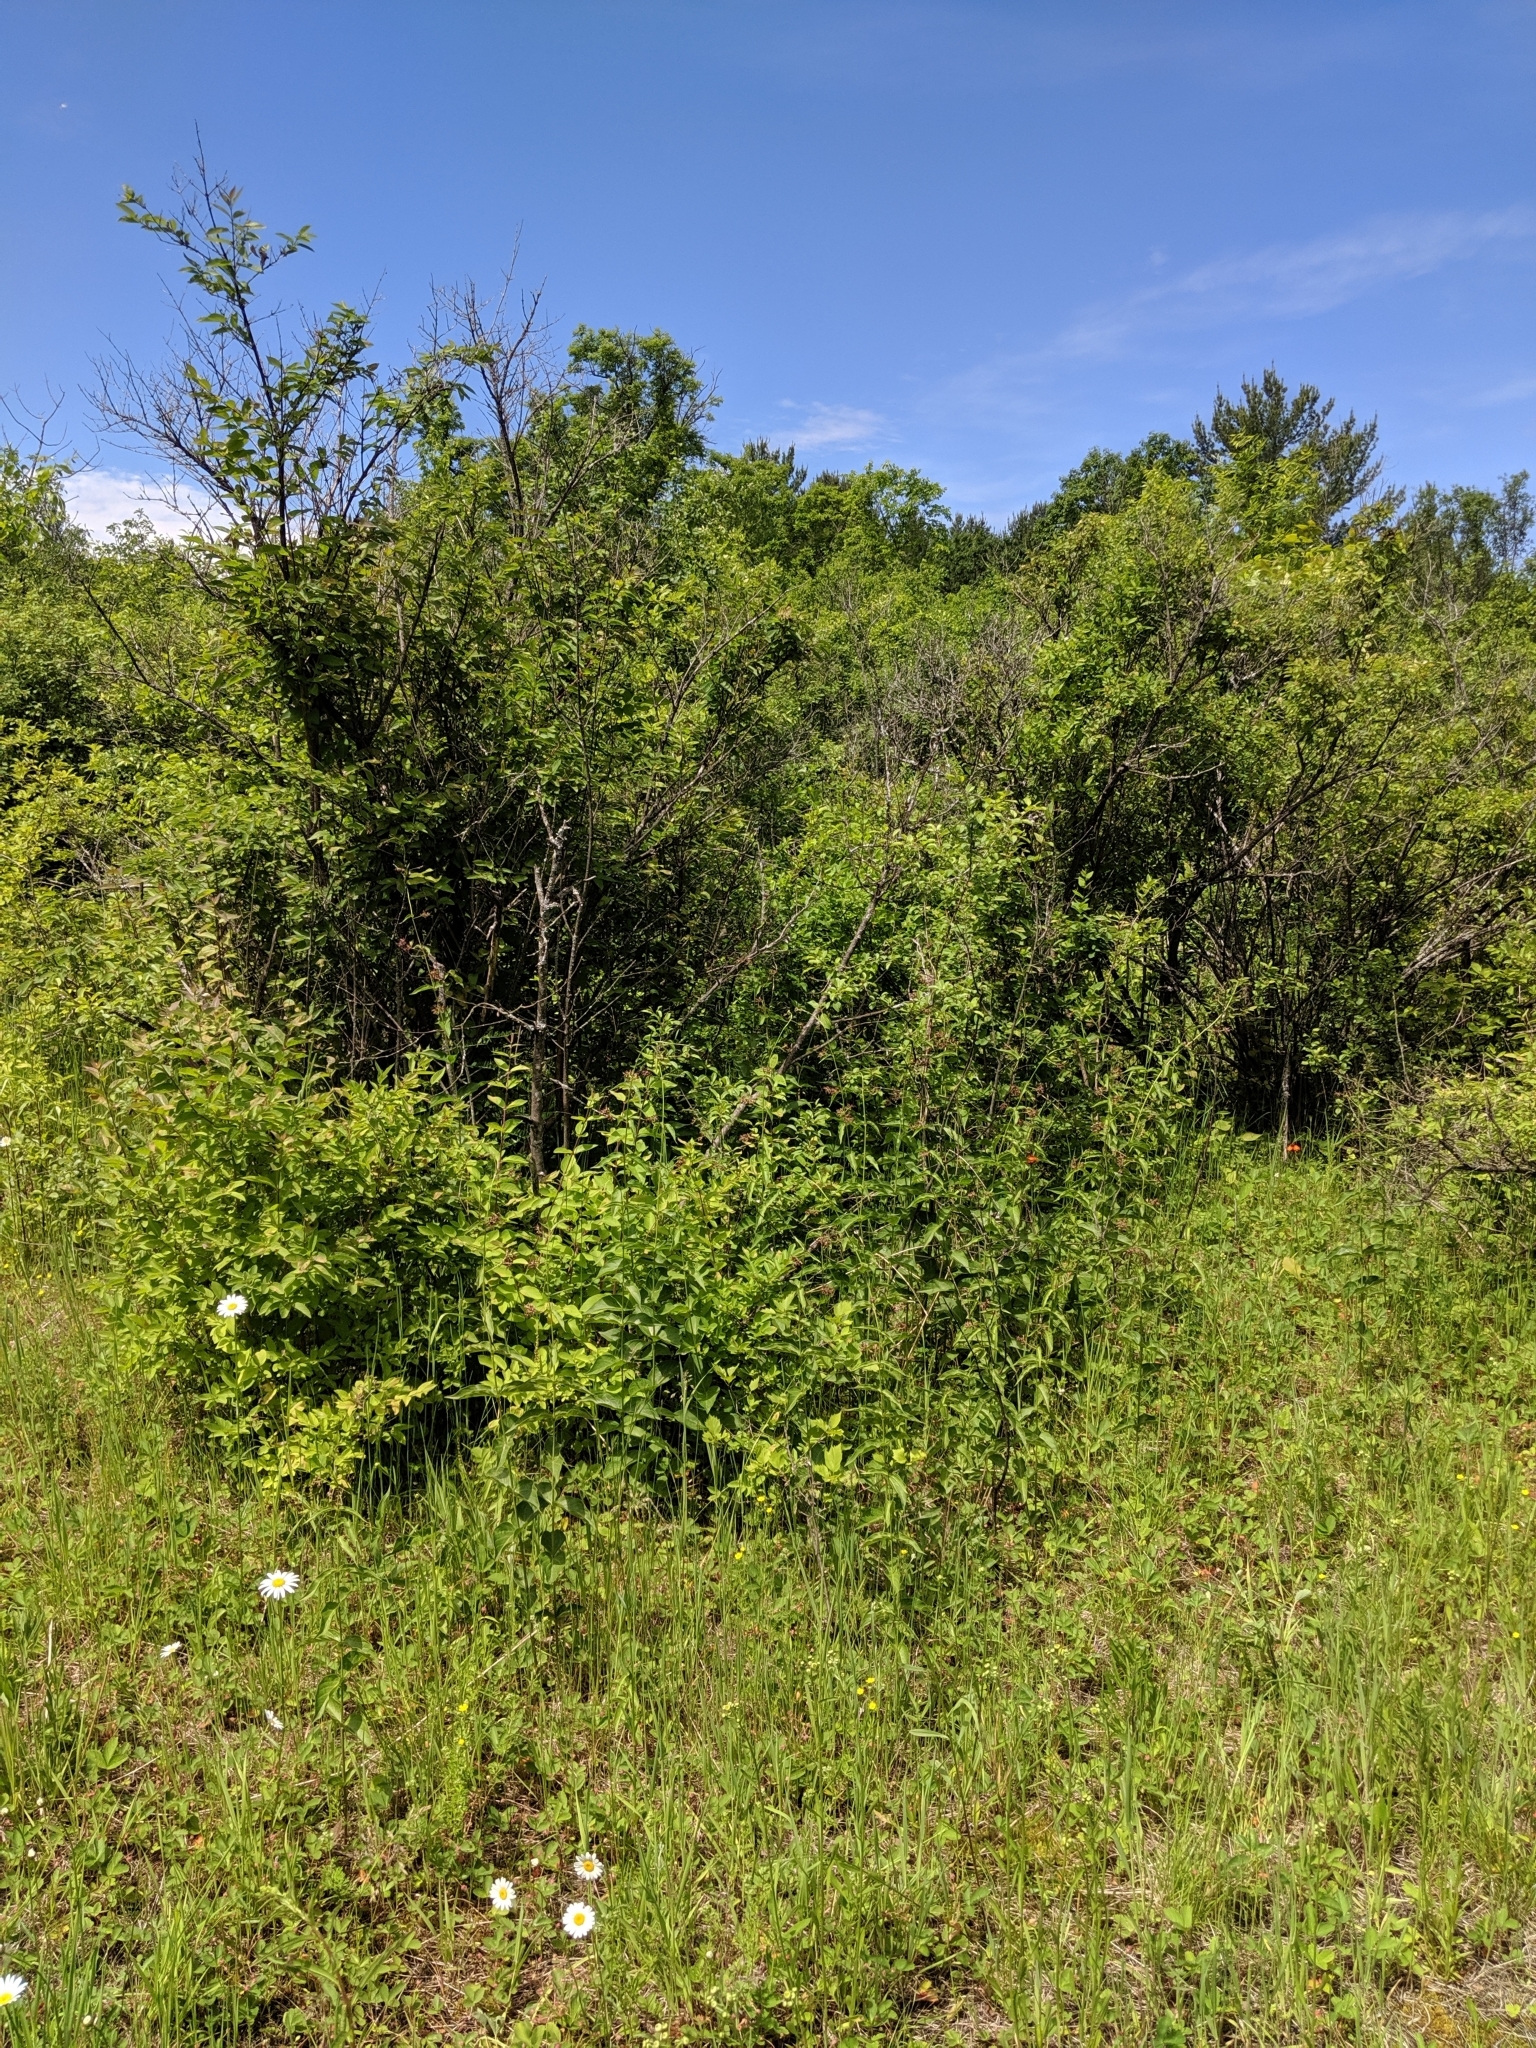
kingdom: Plantae
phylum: Tracheophyta
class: Magnoliopsida
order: Gentianales
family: Apocynaceae
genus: Vincetoxicum
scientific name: Vincetoxicum rossicum
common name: Dog-strangling vine
